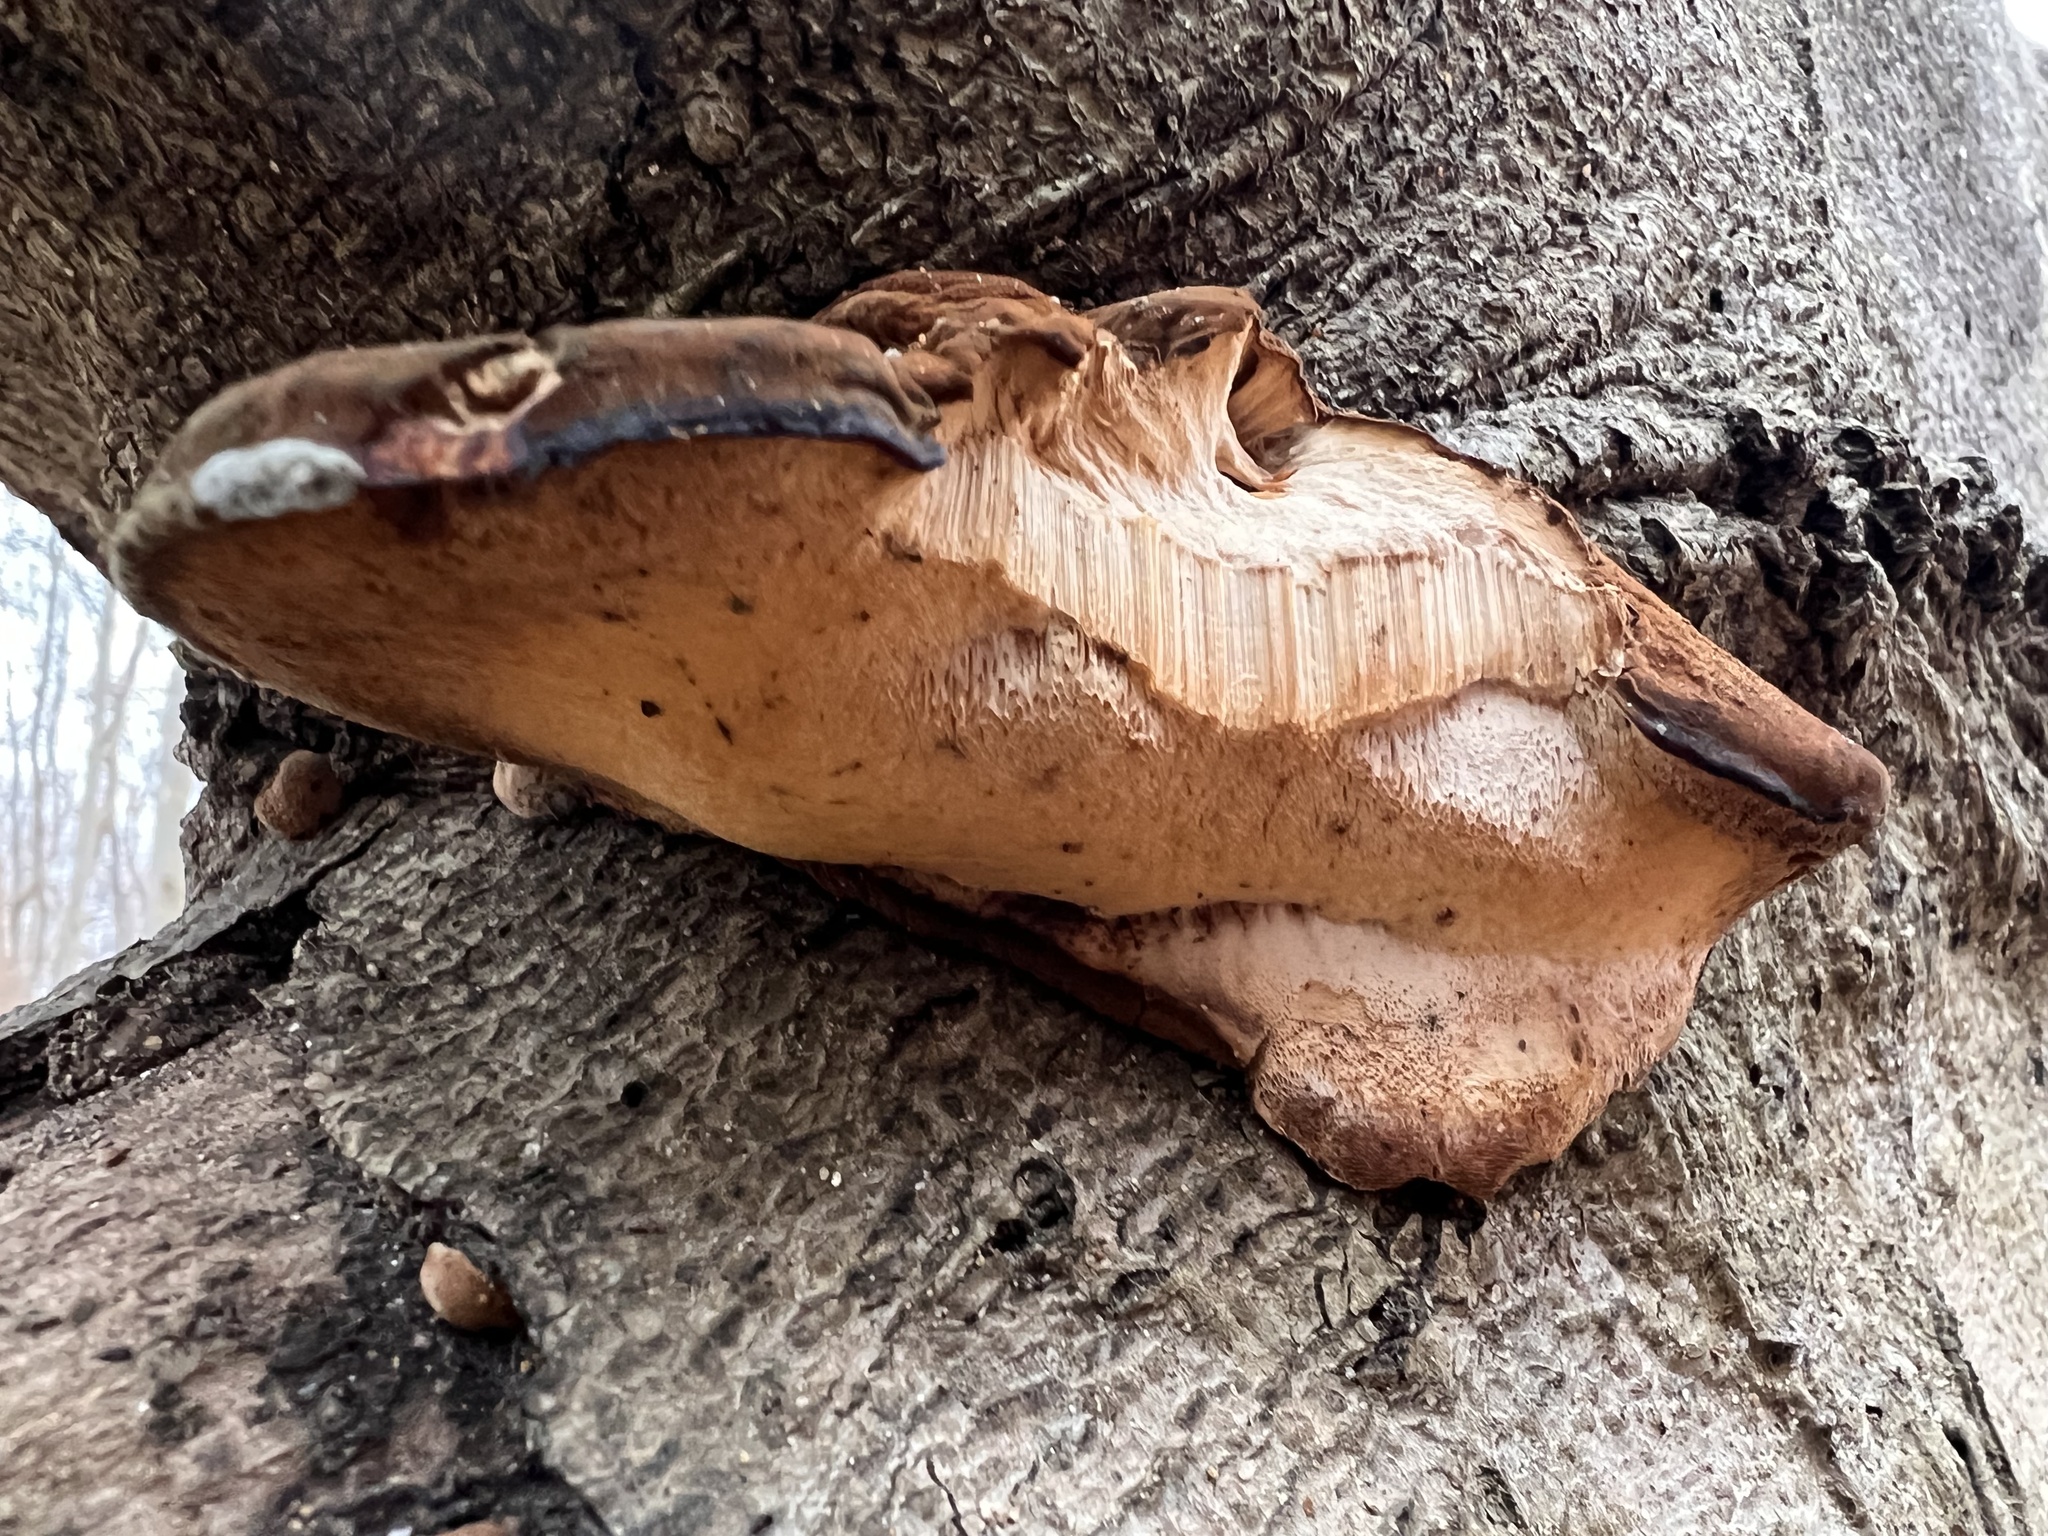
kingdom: Fungi
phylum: Basidiomycota
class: Agaricomycetes
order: Polyporales
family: Ischnodermataceae
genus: Ischnoderma
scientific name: Ischnoderma resinosum
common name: Resinous polypore
